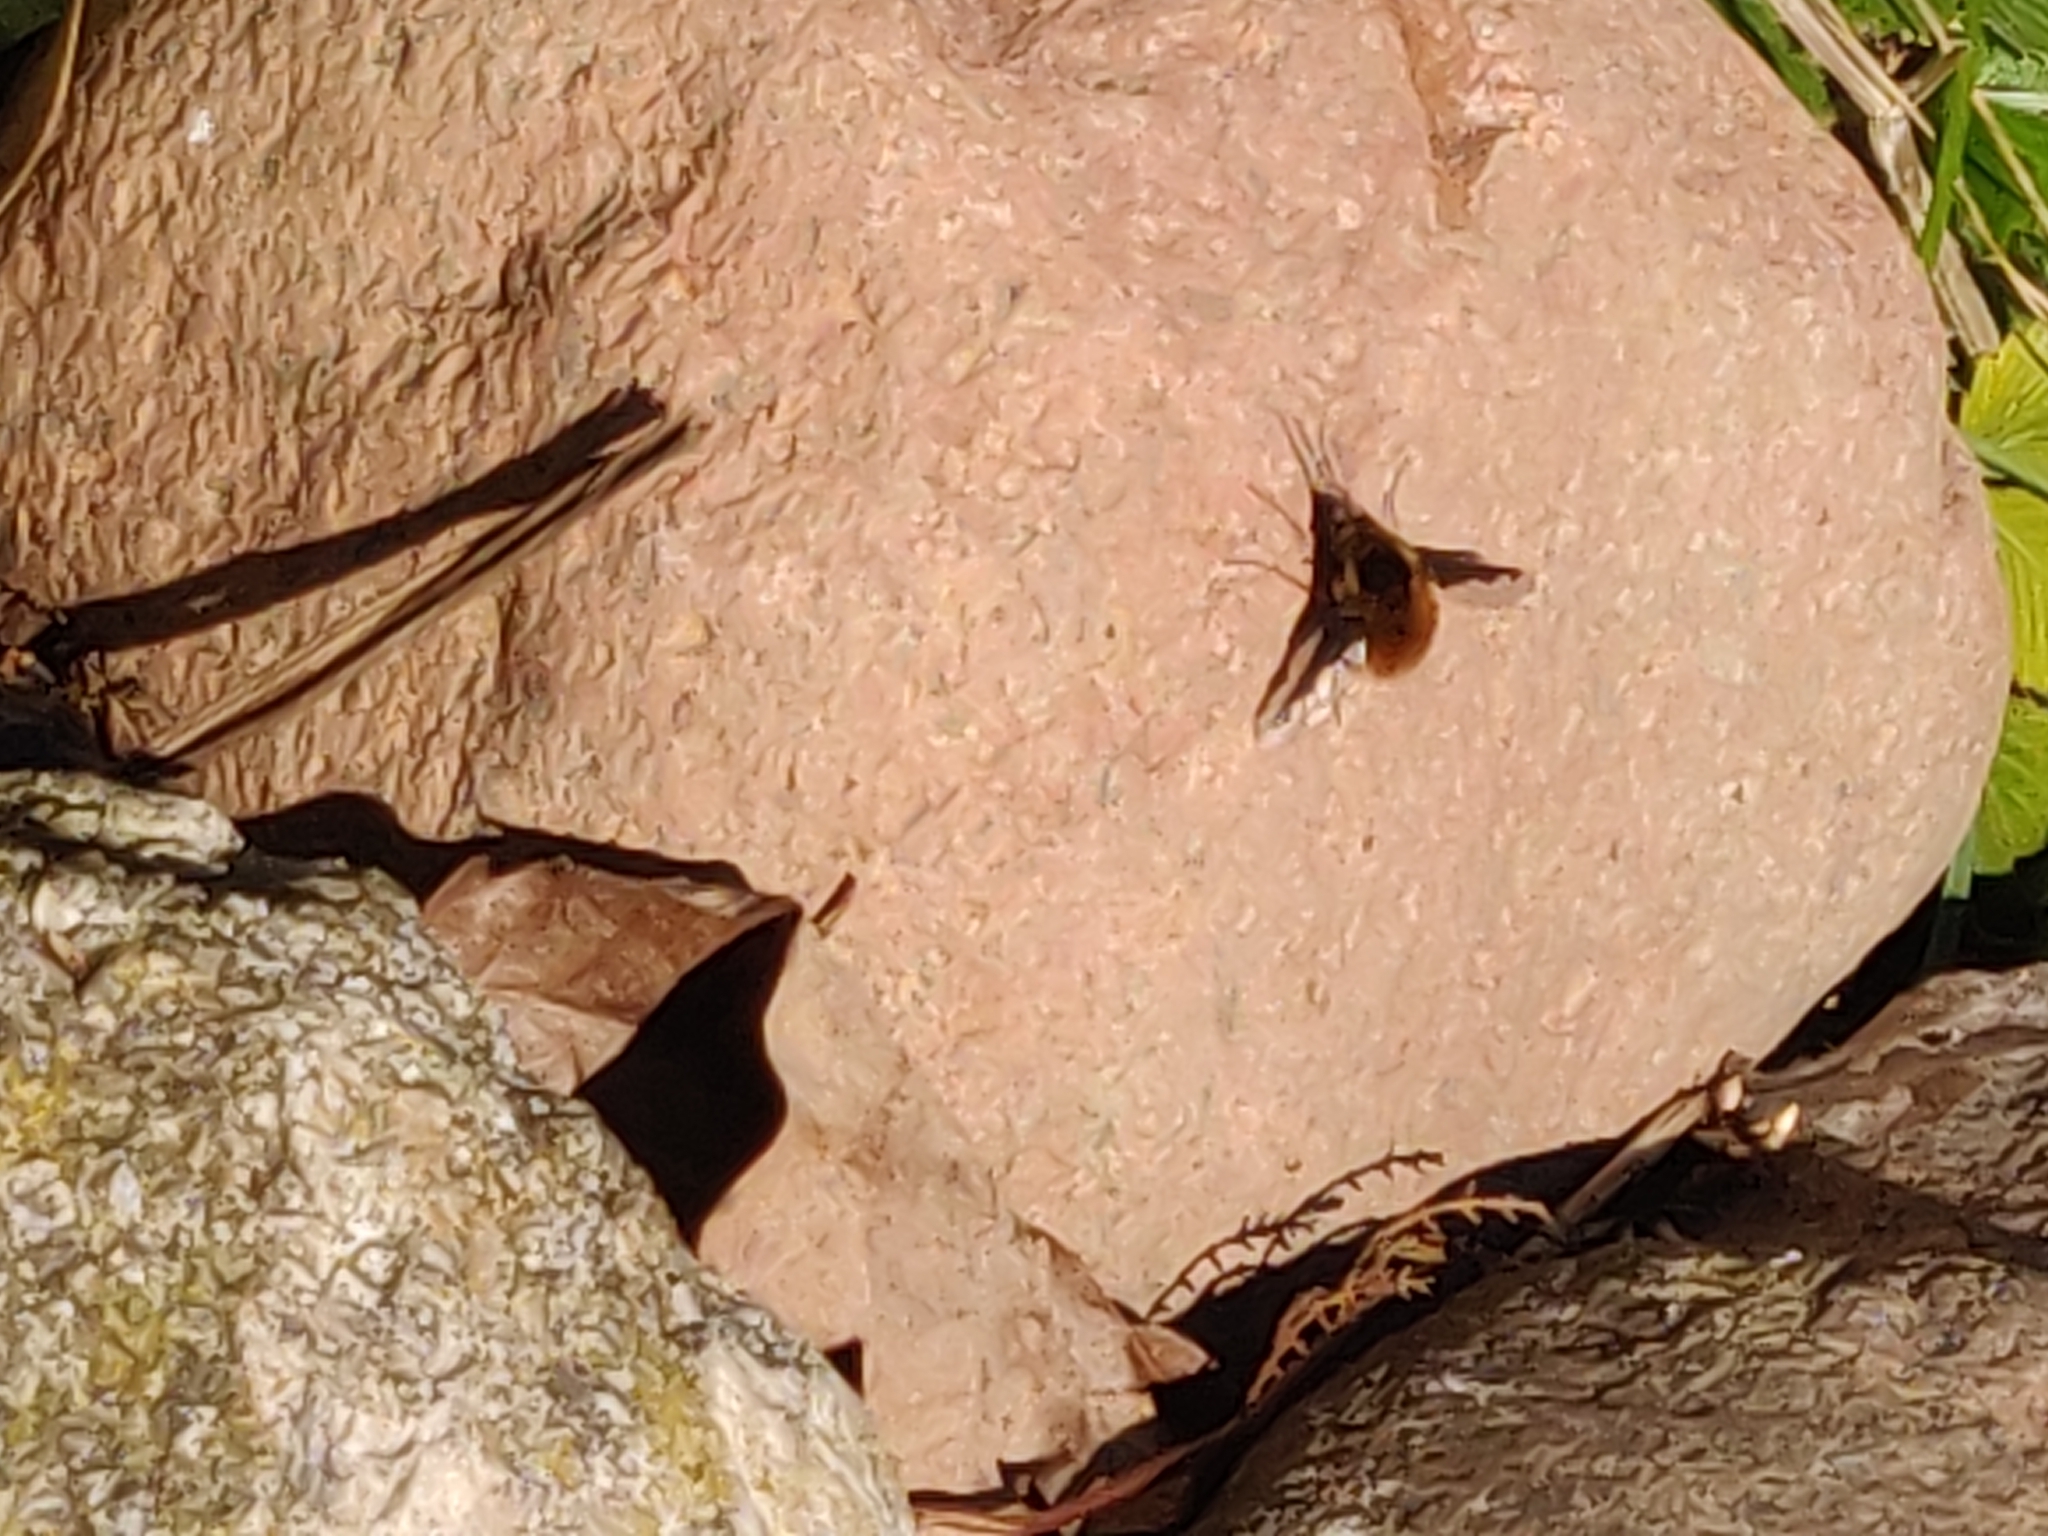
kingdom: Animalia
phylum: Arthropoda
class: Insecta
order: Diptera
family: Bombyliidae
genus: Bombylius
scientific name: Bombylius major
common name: Bee fly
